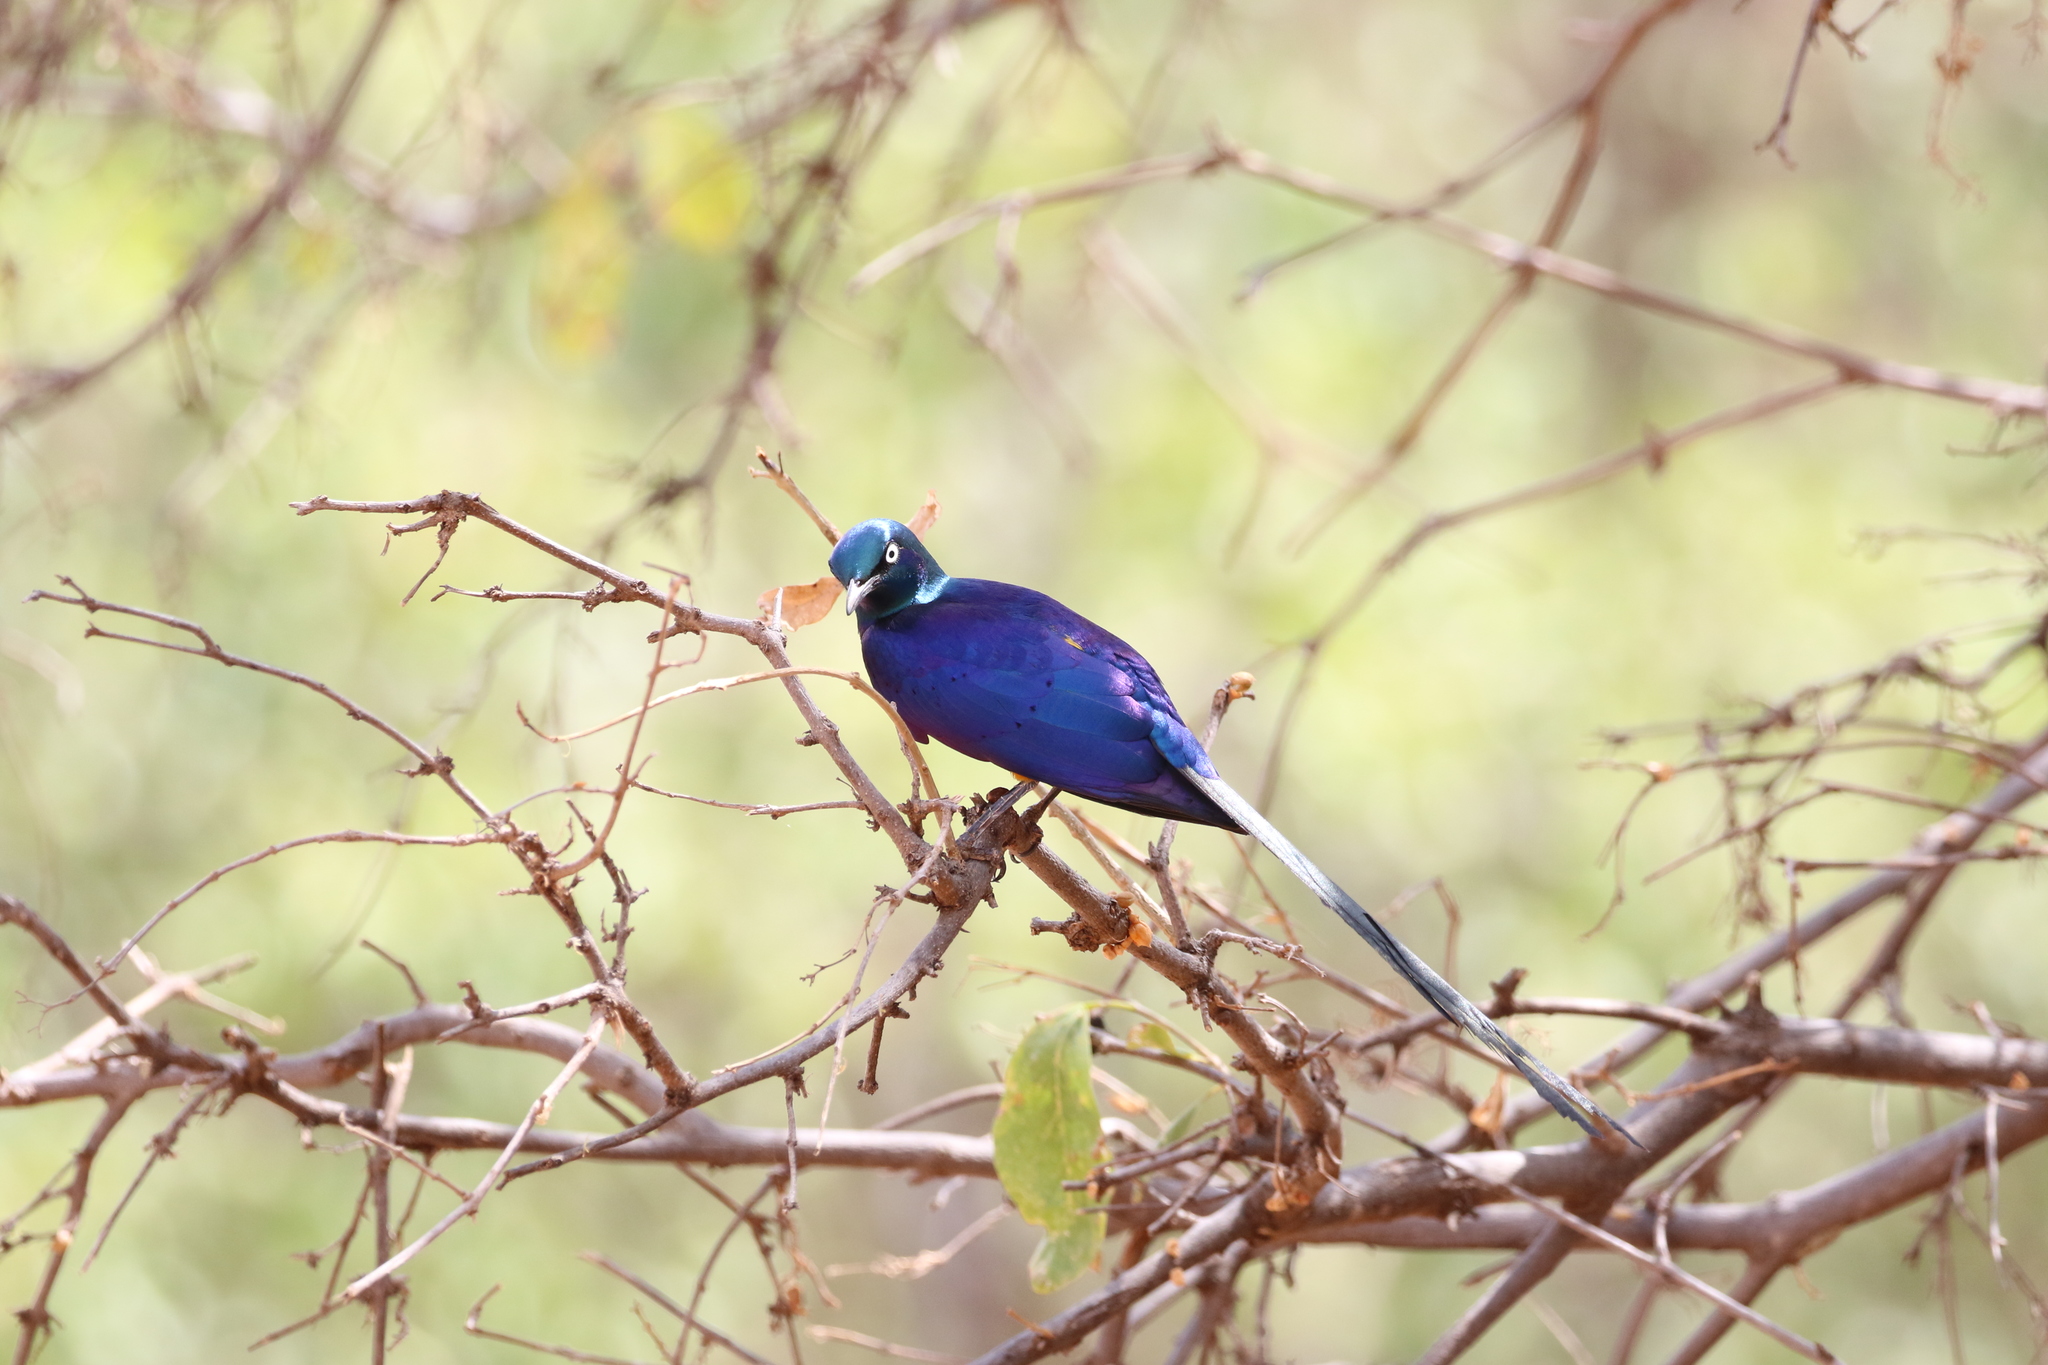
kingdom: Animalia
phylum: Chordata
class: Aves
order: Passeriformes
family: Sturnidae
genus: Lamprotornis
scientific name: Lamprotornis purpuroptera
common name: Rüppell's starling
